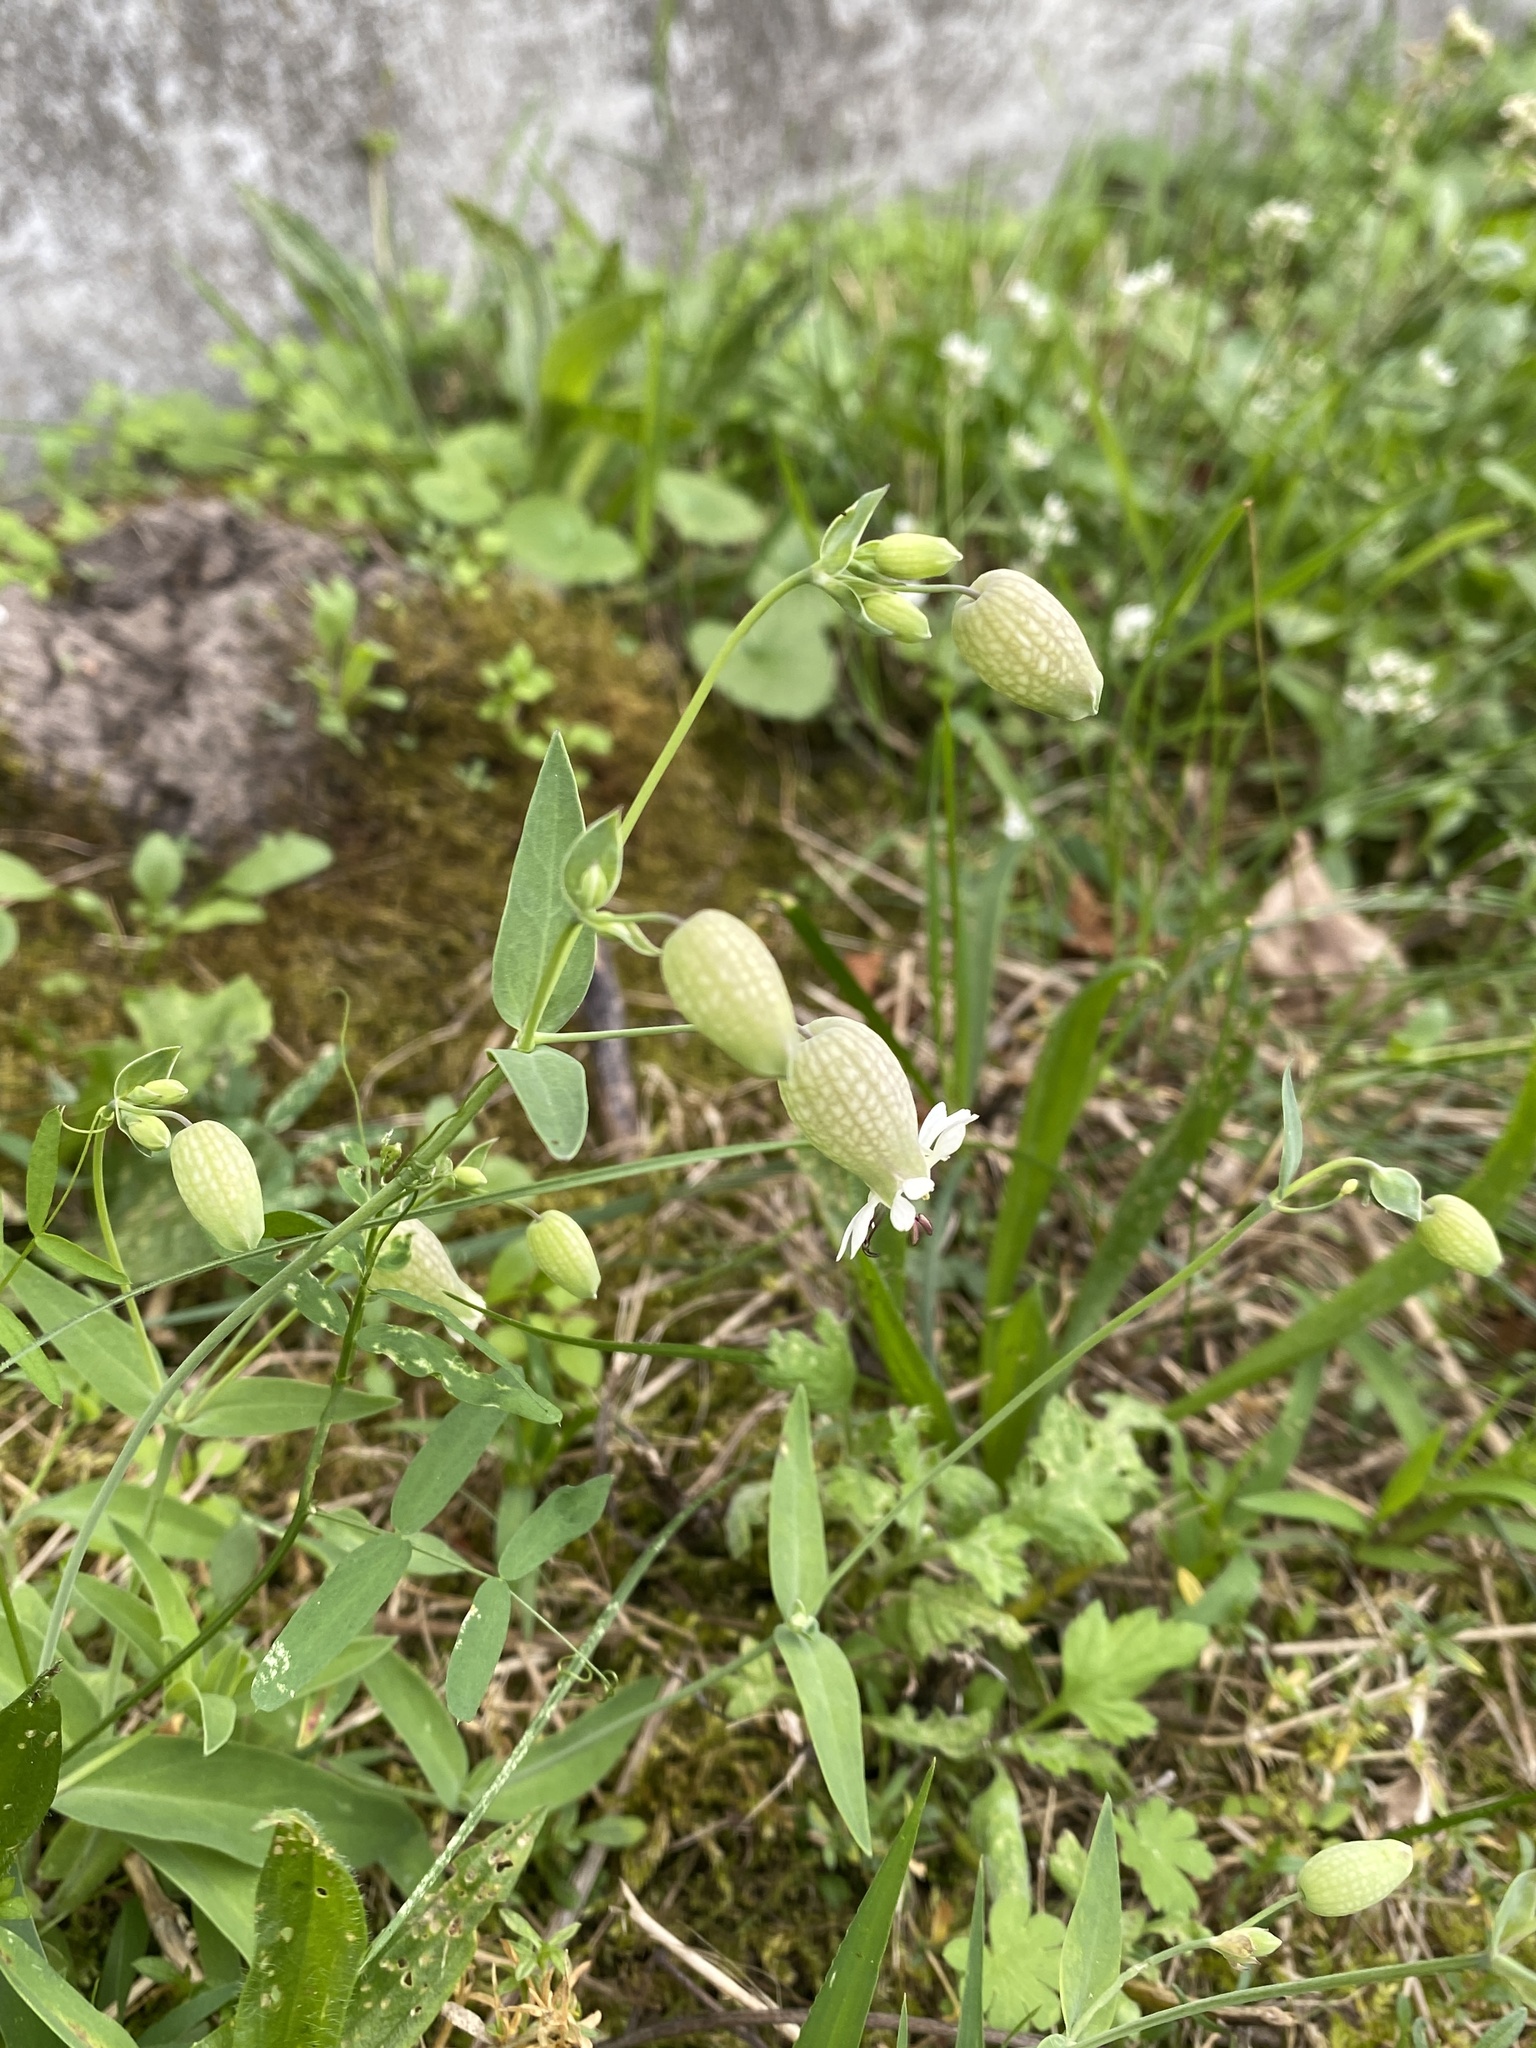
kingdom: Plantae
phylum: Tracheophyta
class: Magnoliopsida
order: Caryophyllales
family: Caryophyllaceae
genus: Silene
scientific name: Silene vulgaris
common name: Bladder campion
